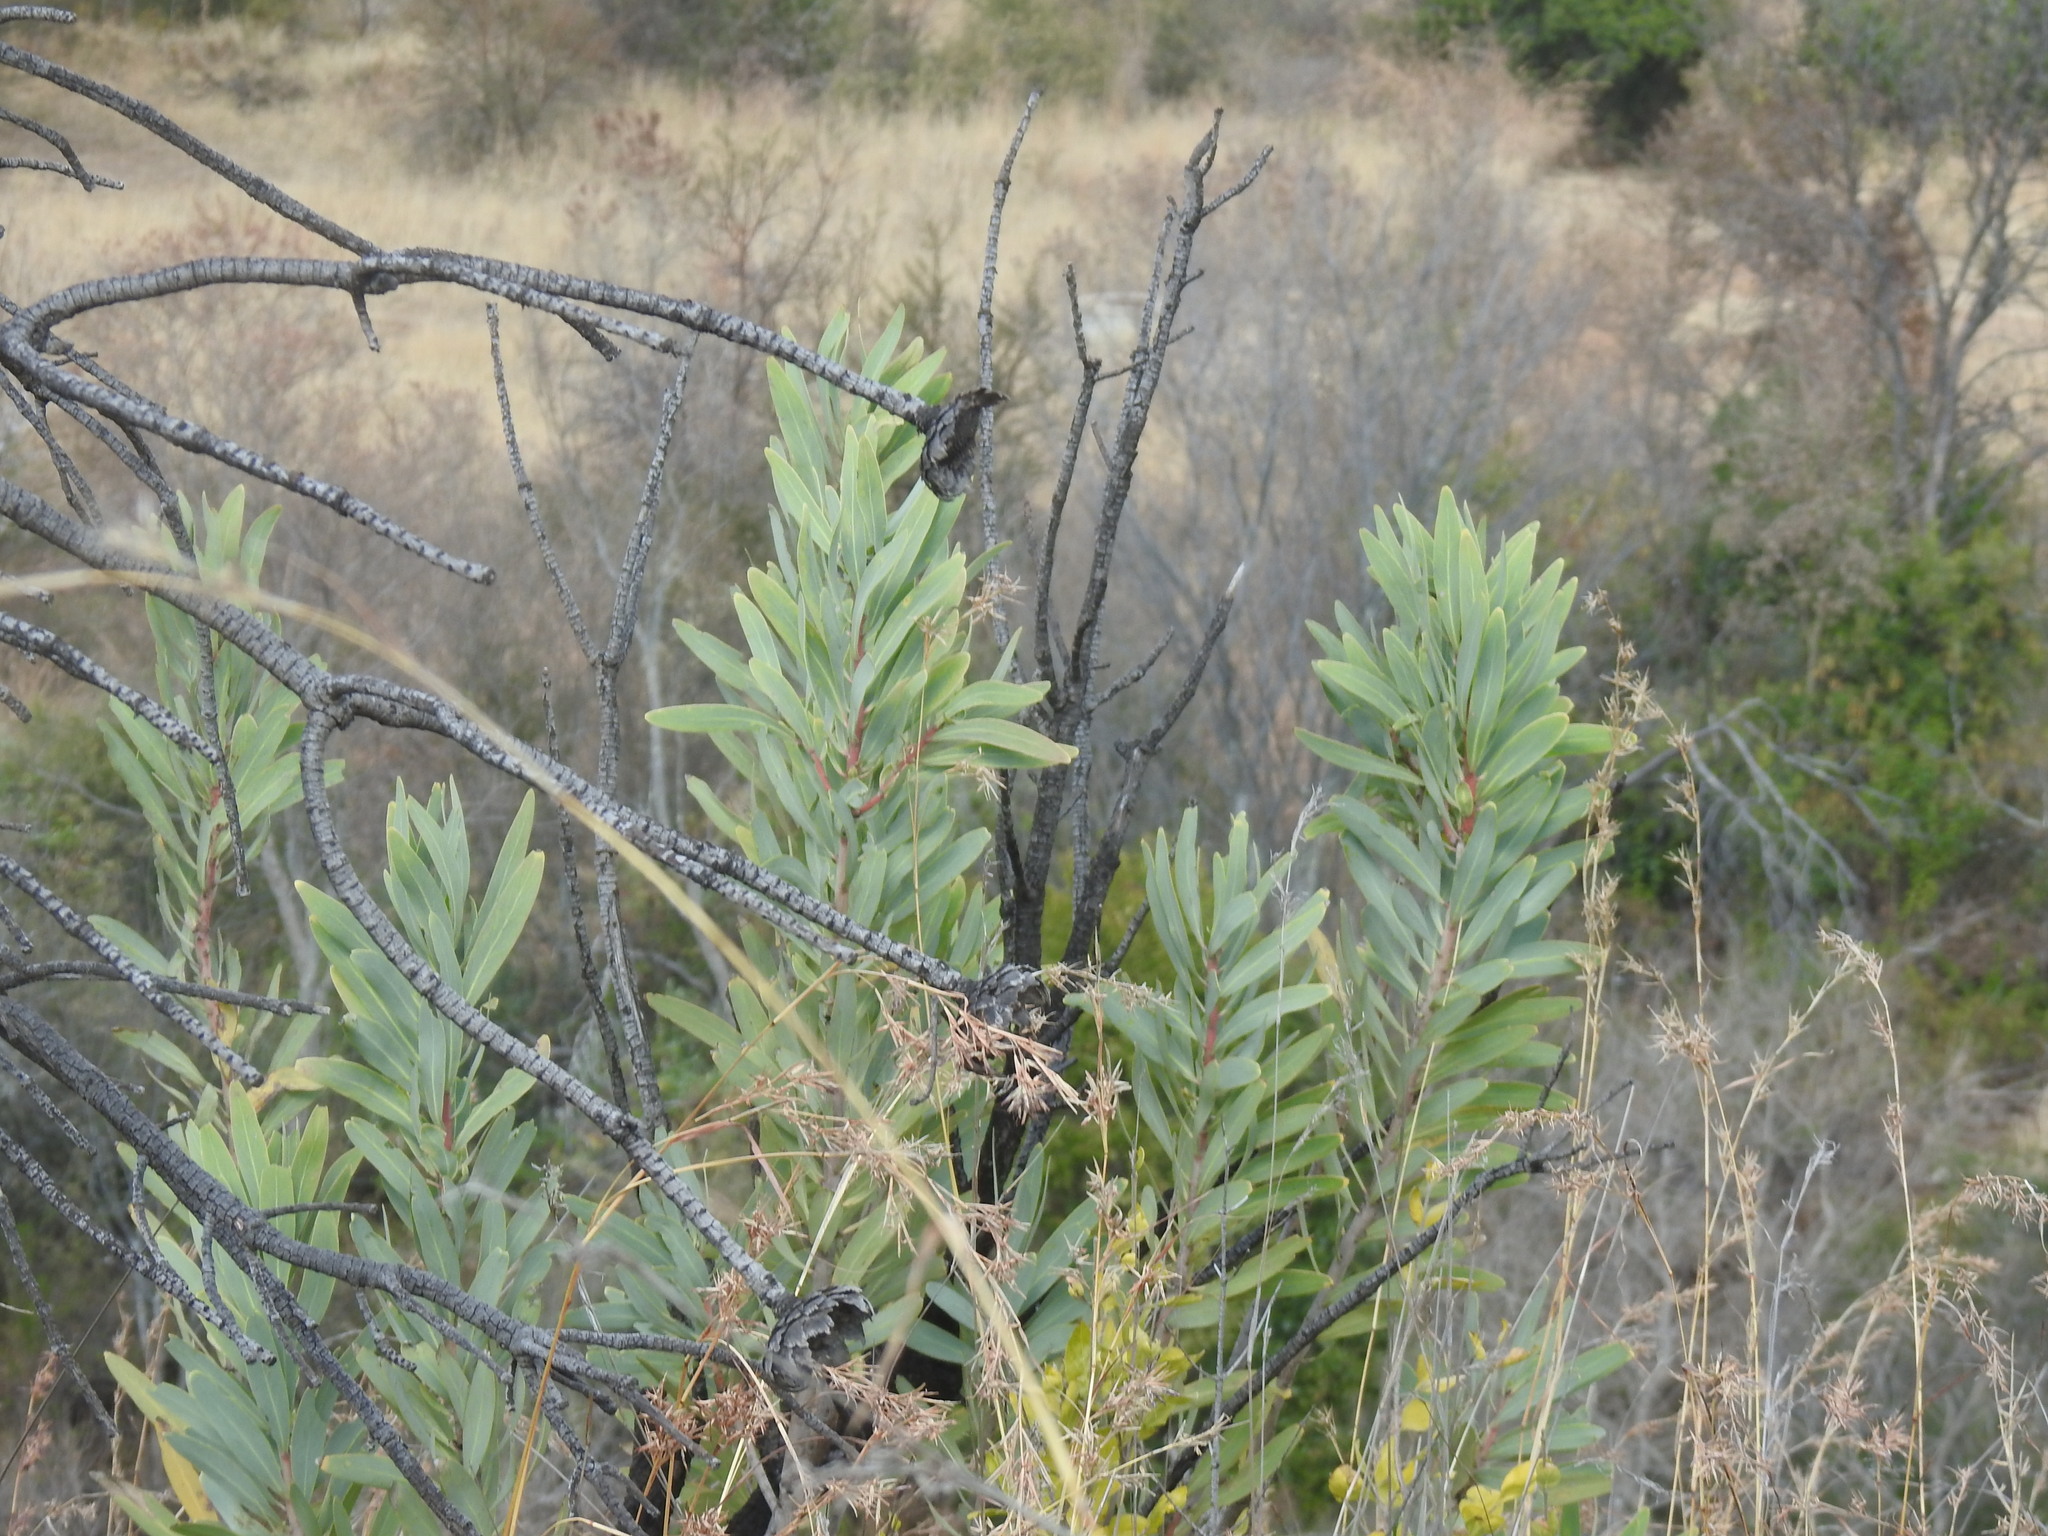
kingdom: Plantae
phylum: Tracheophyta
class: Magnoliopsida
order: Proteales
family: Proteaceae
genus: Protea
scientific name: Protea caffra
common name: Common sugarbush
